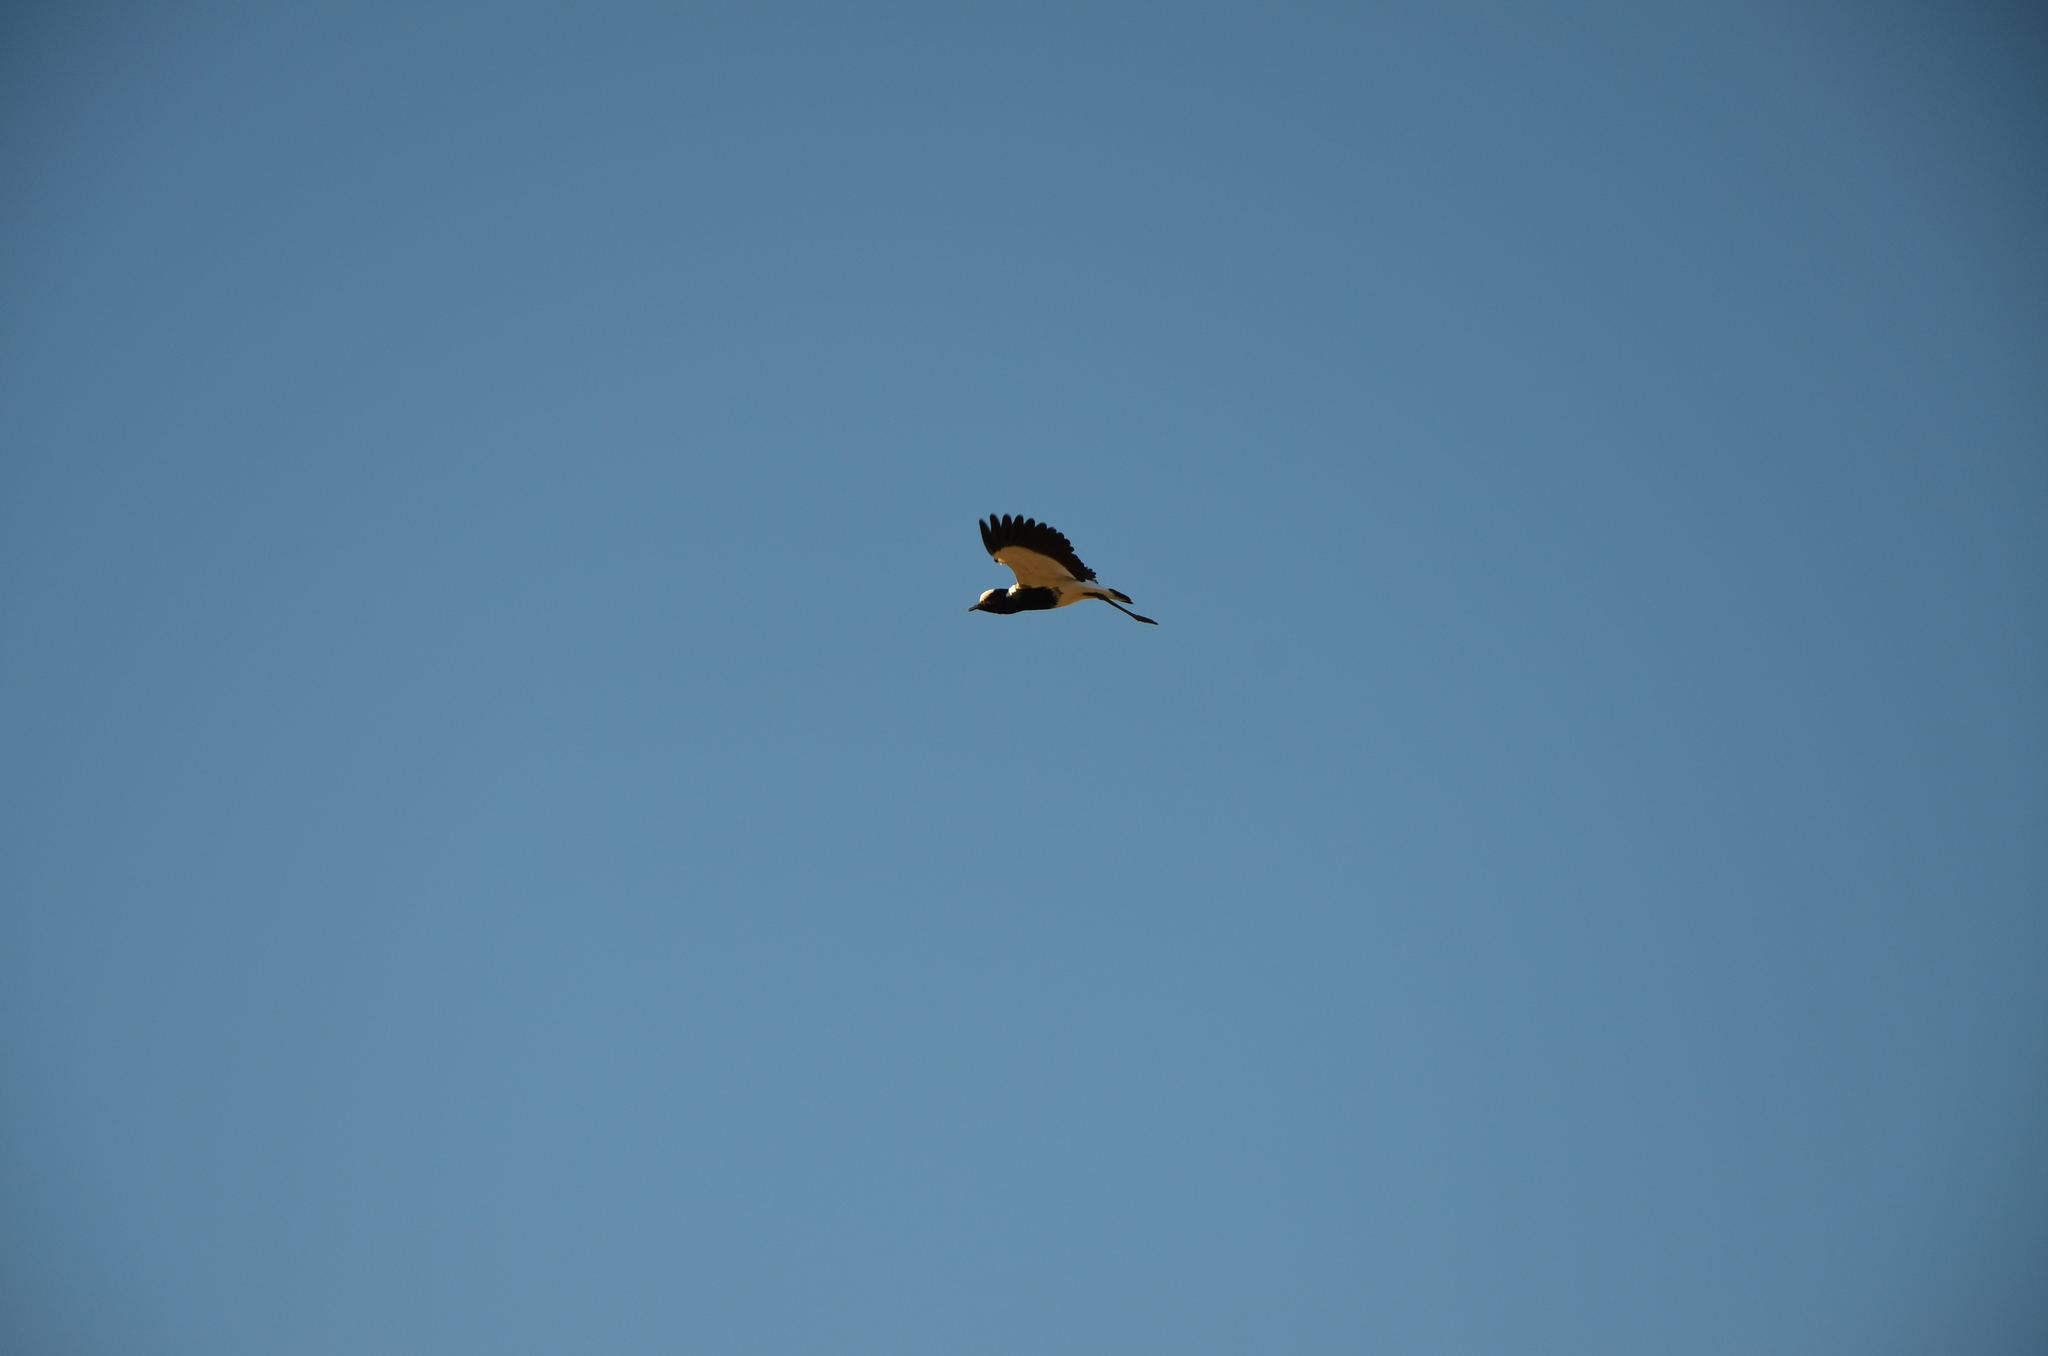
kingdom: Animalia
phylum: Chordata
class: Aves
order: Charadriiformes
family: Charadriidae
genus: Vanellus
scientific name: Vanellus armatus
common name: Blacksmith lapwing
